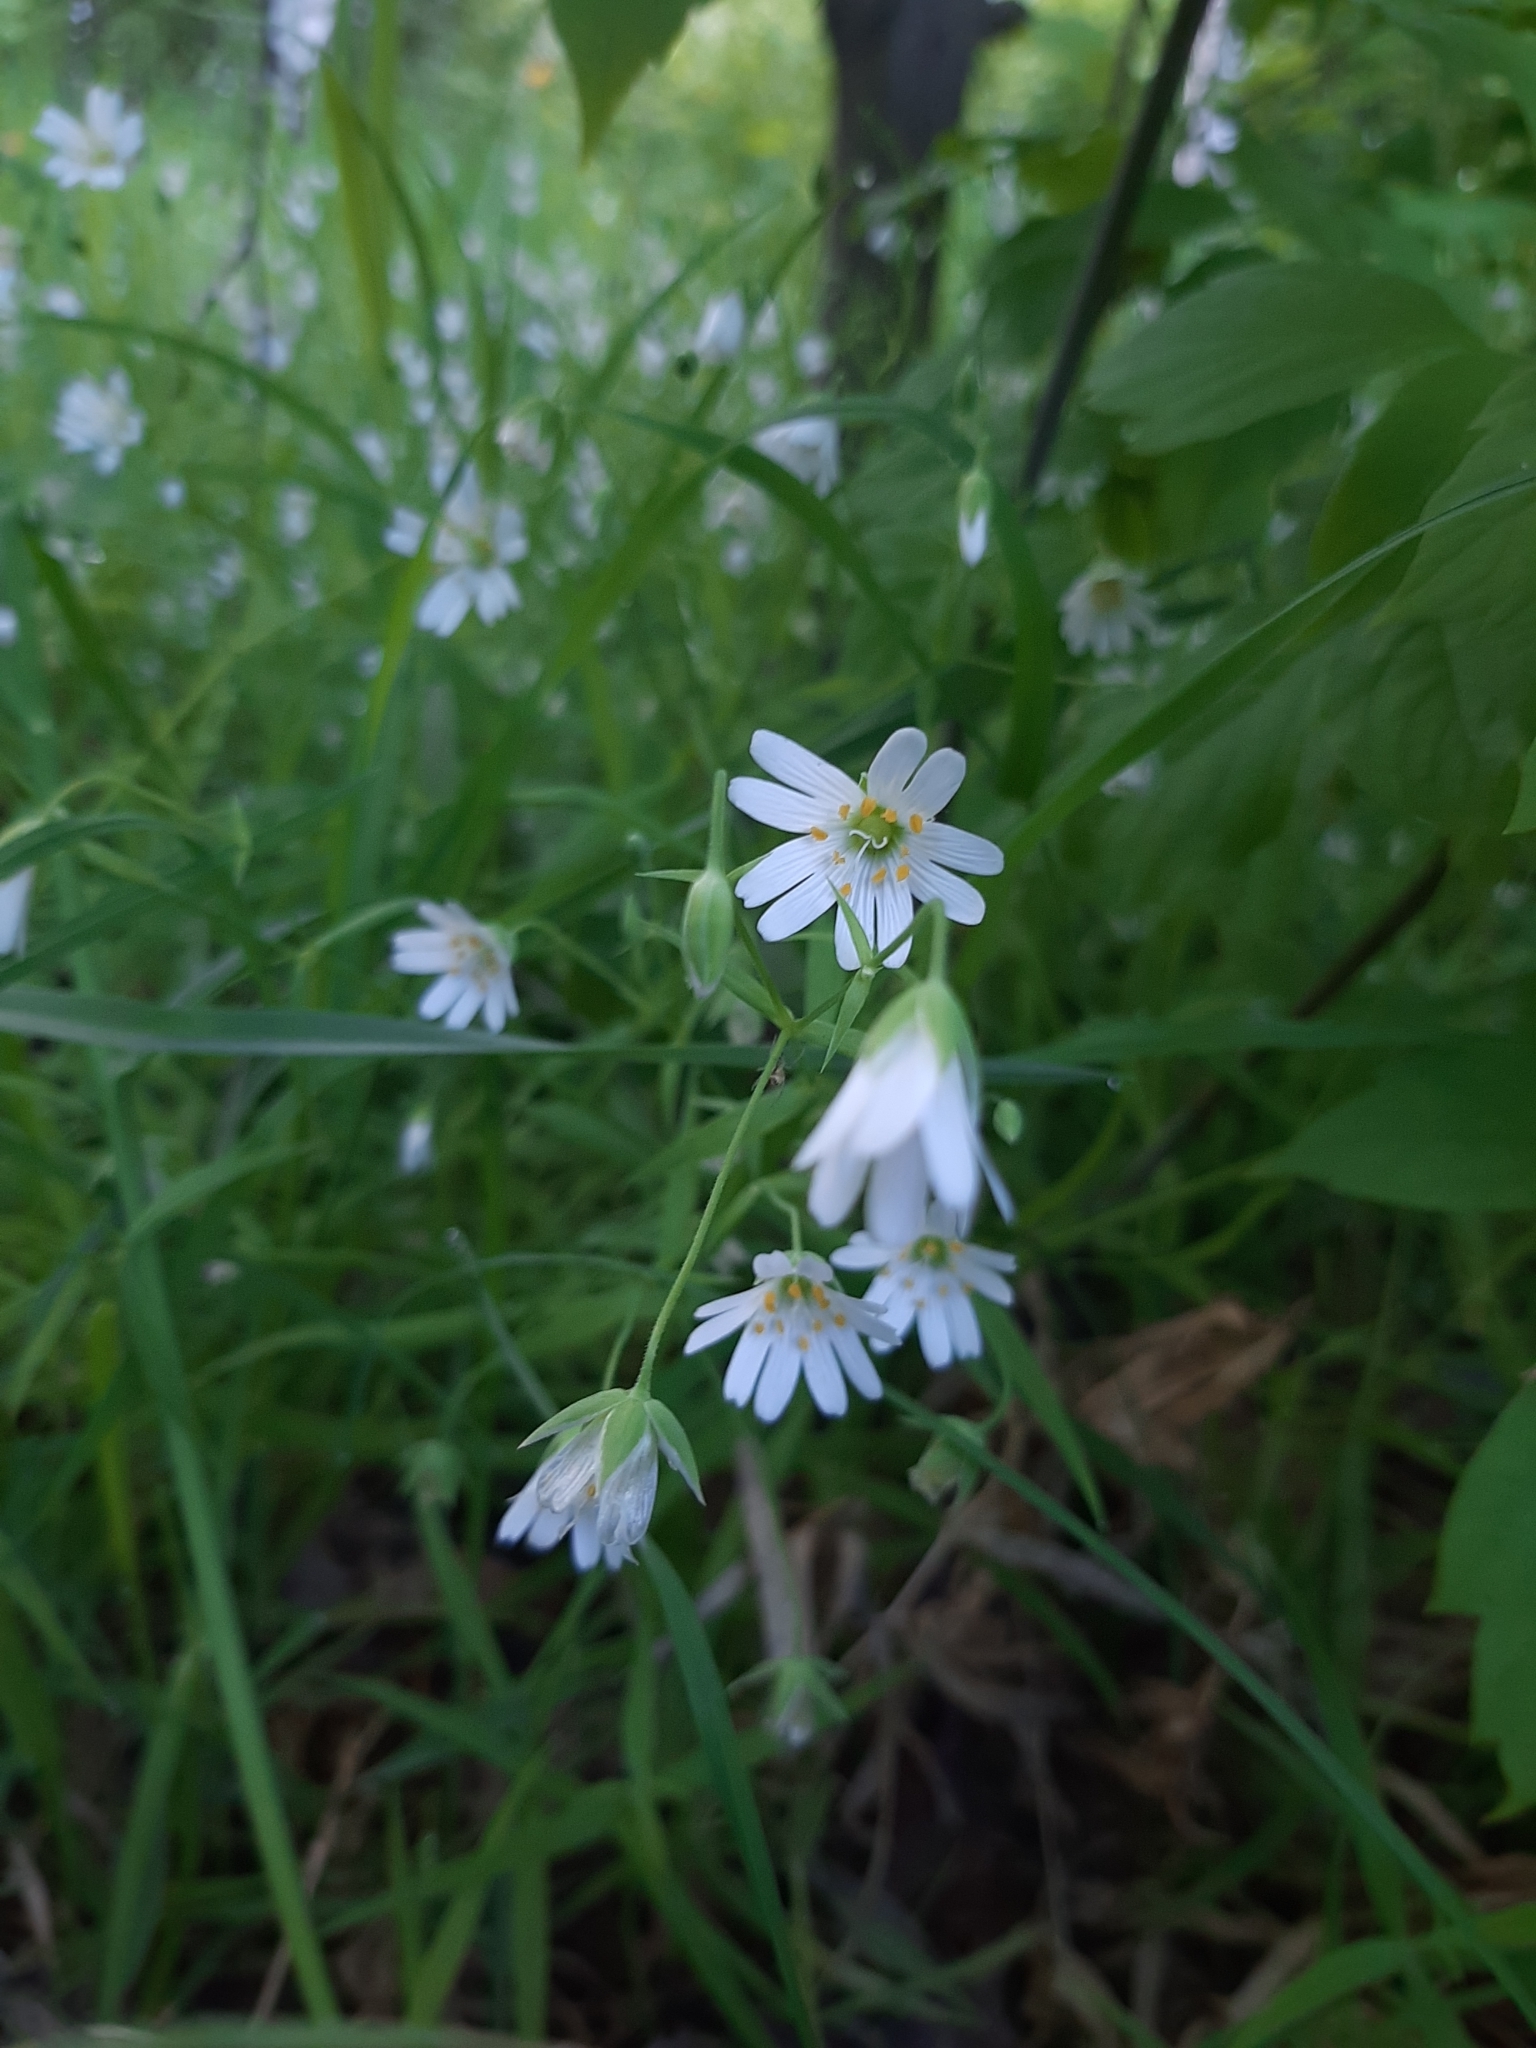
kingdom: Plantae
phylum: Tracheophyta
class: Magnoliopsida
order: Caryophyllales
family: Caryophyllaceae
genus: Rabelera
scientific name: Rabelera holostea
